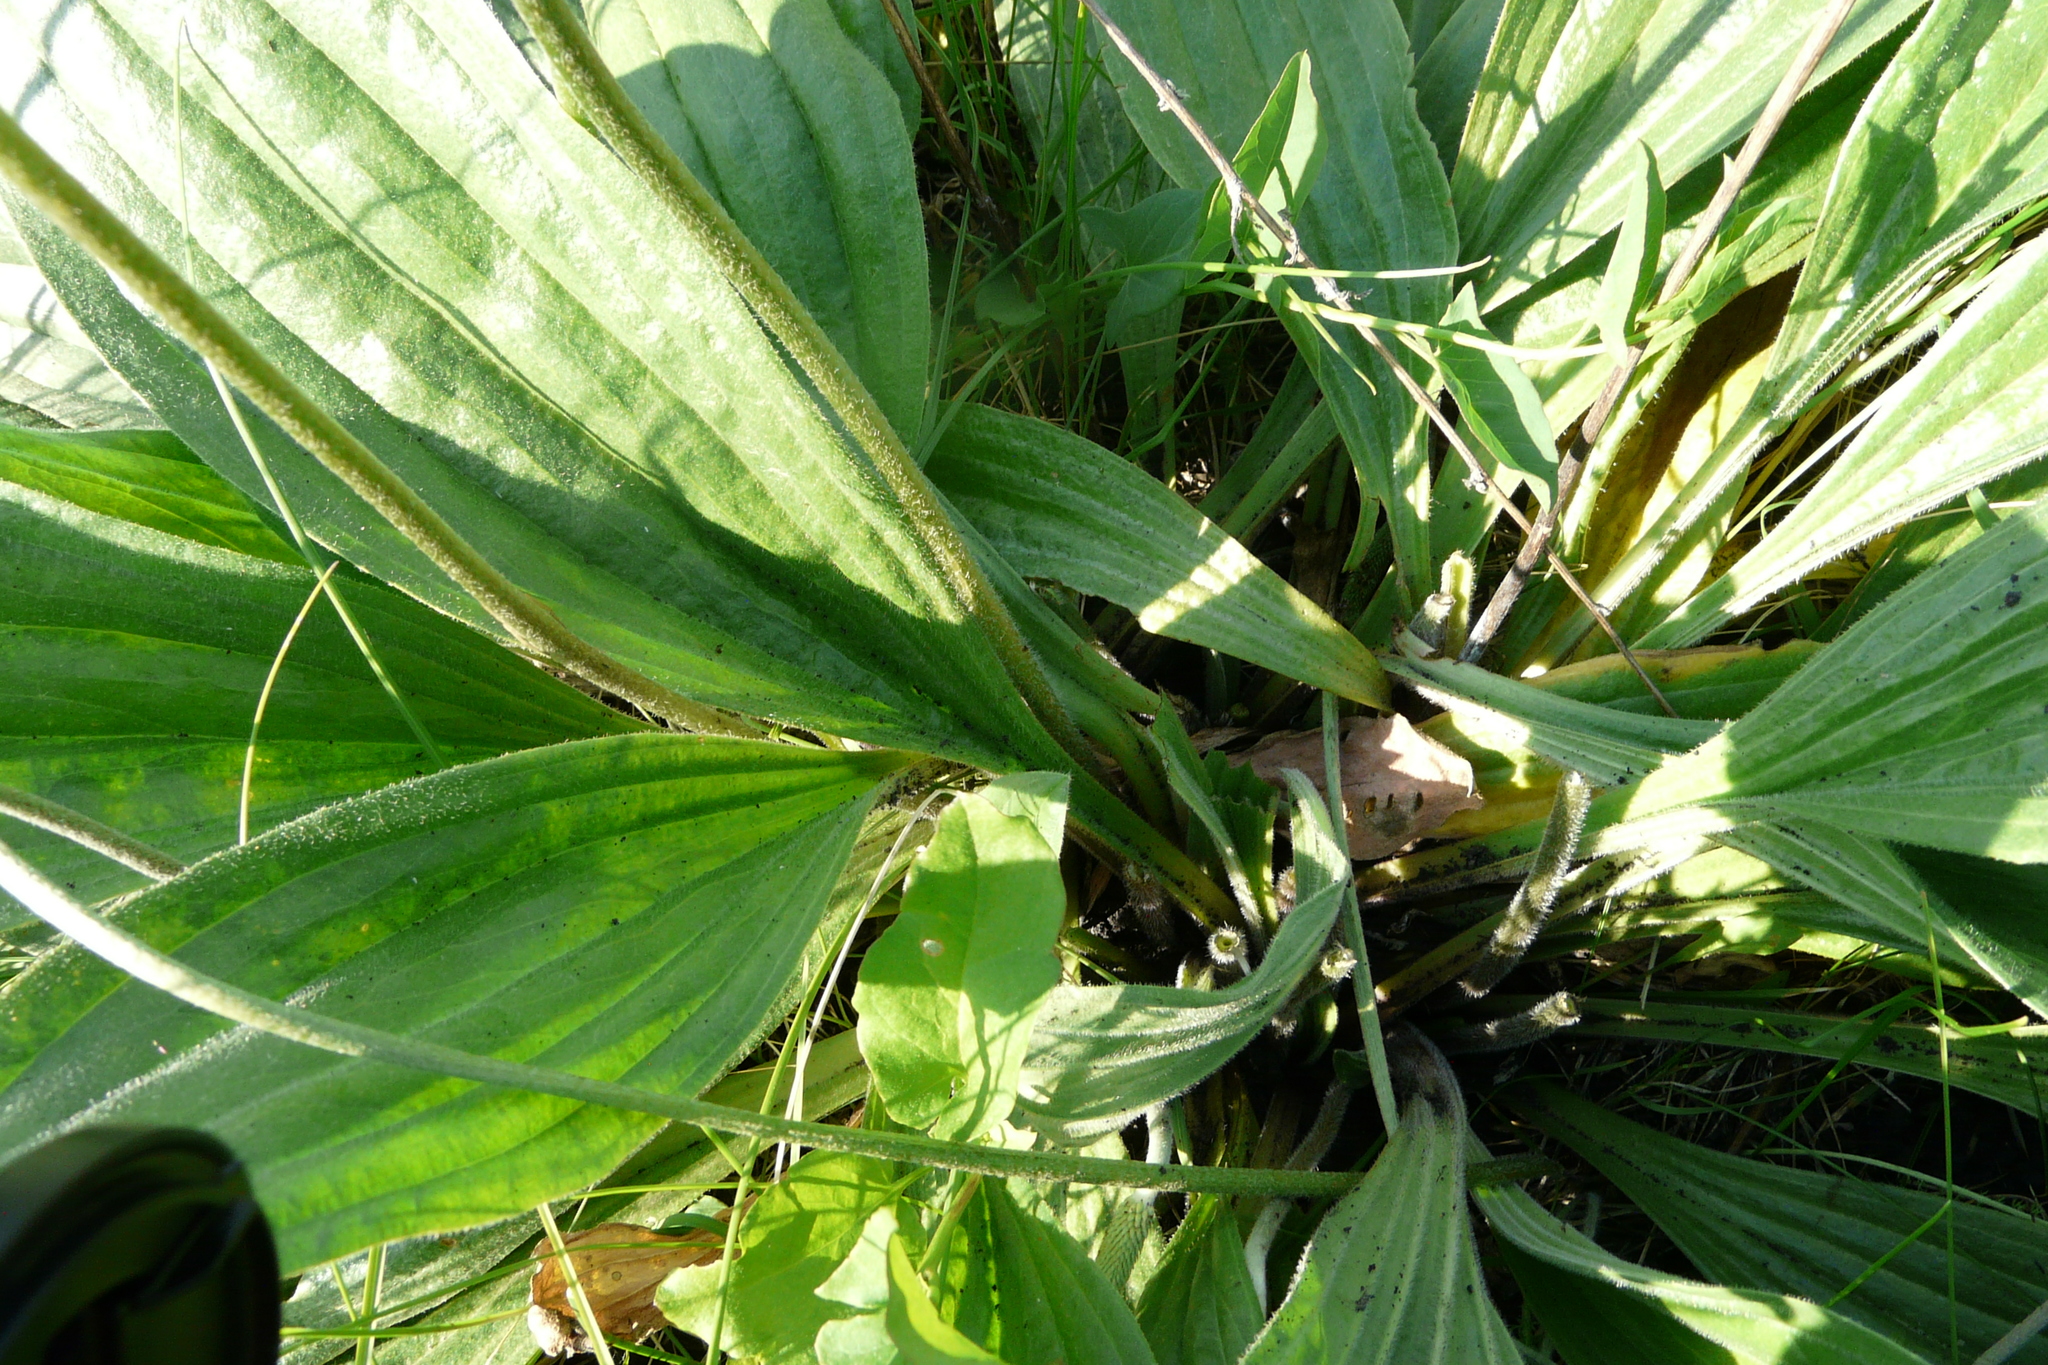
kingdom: Plantae
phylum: Tracheophyta
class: Magnoliopsida
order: Lamiales
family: Plantaginaceae
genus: Plantago
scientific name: Plantago urvillei
